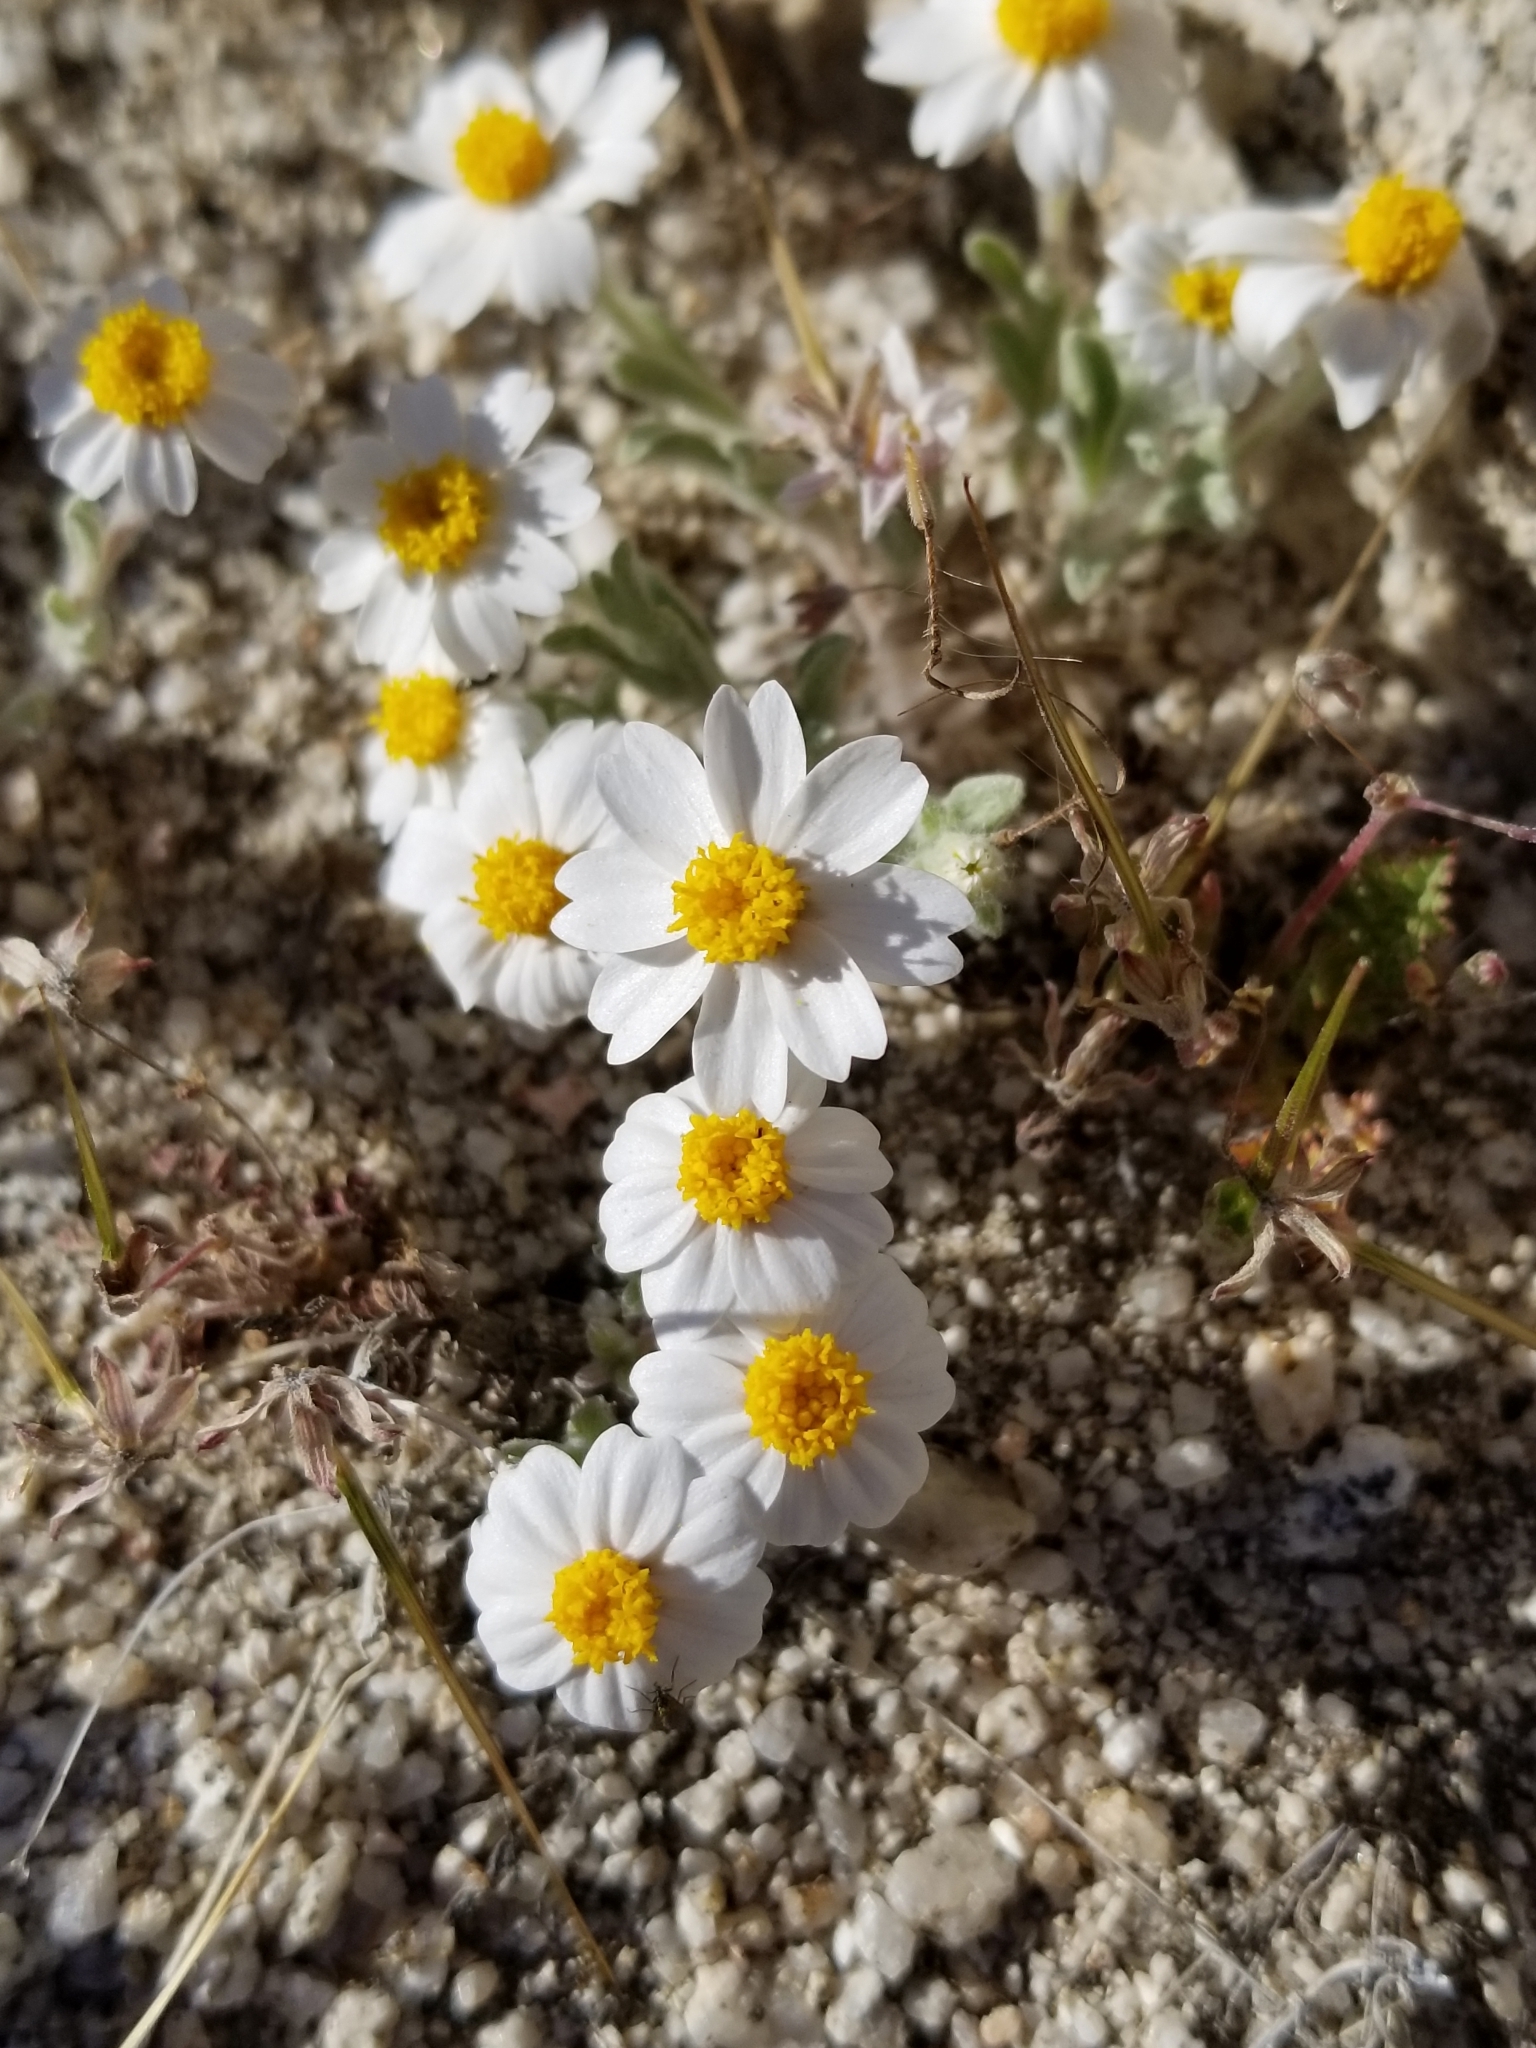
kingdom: Plantae
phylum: Tracheophyta
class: Magnoliopsida
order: Asterales
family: Asteraceae
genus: Eriophyllum
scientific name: Eriophyllum wallacei
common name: Wallace's woolly daisy
